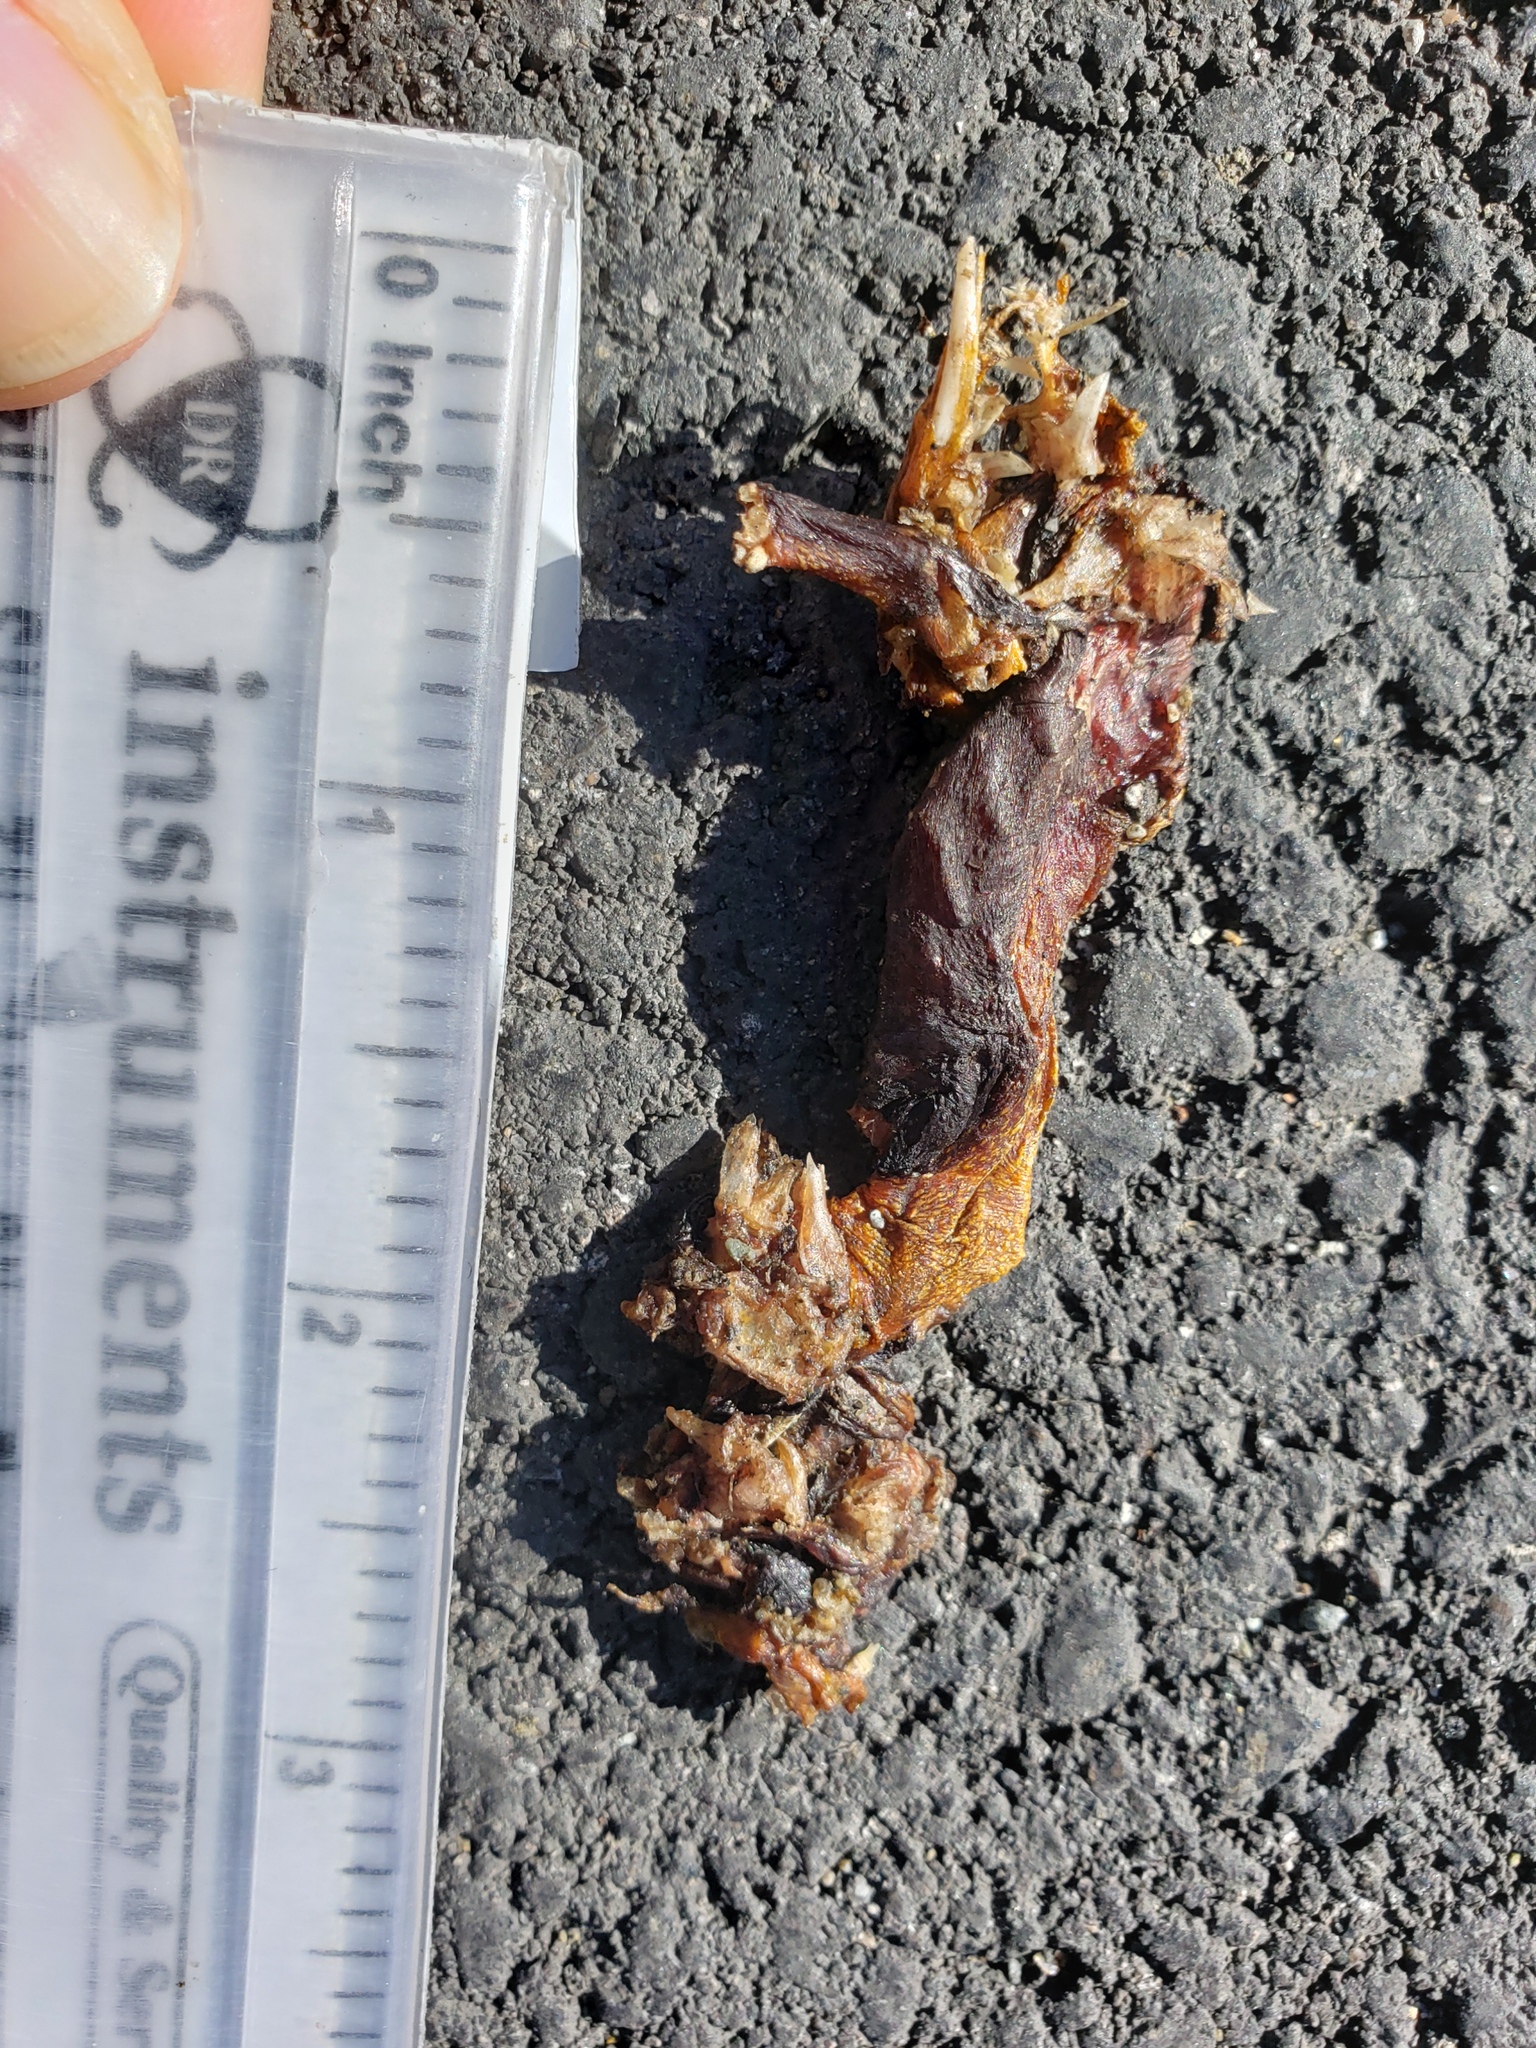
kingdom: Animalia
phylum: Chordata
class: Amphibia
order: Caudata
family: Salamandridae
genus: Taricha
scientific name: Taricha
